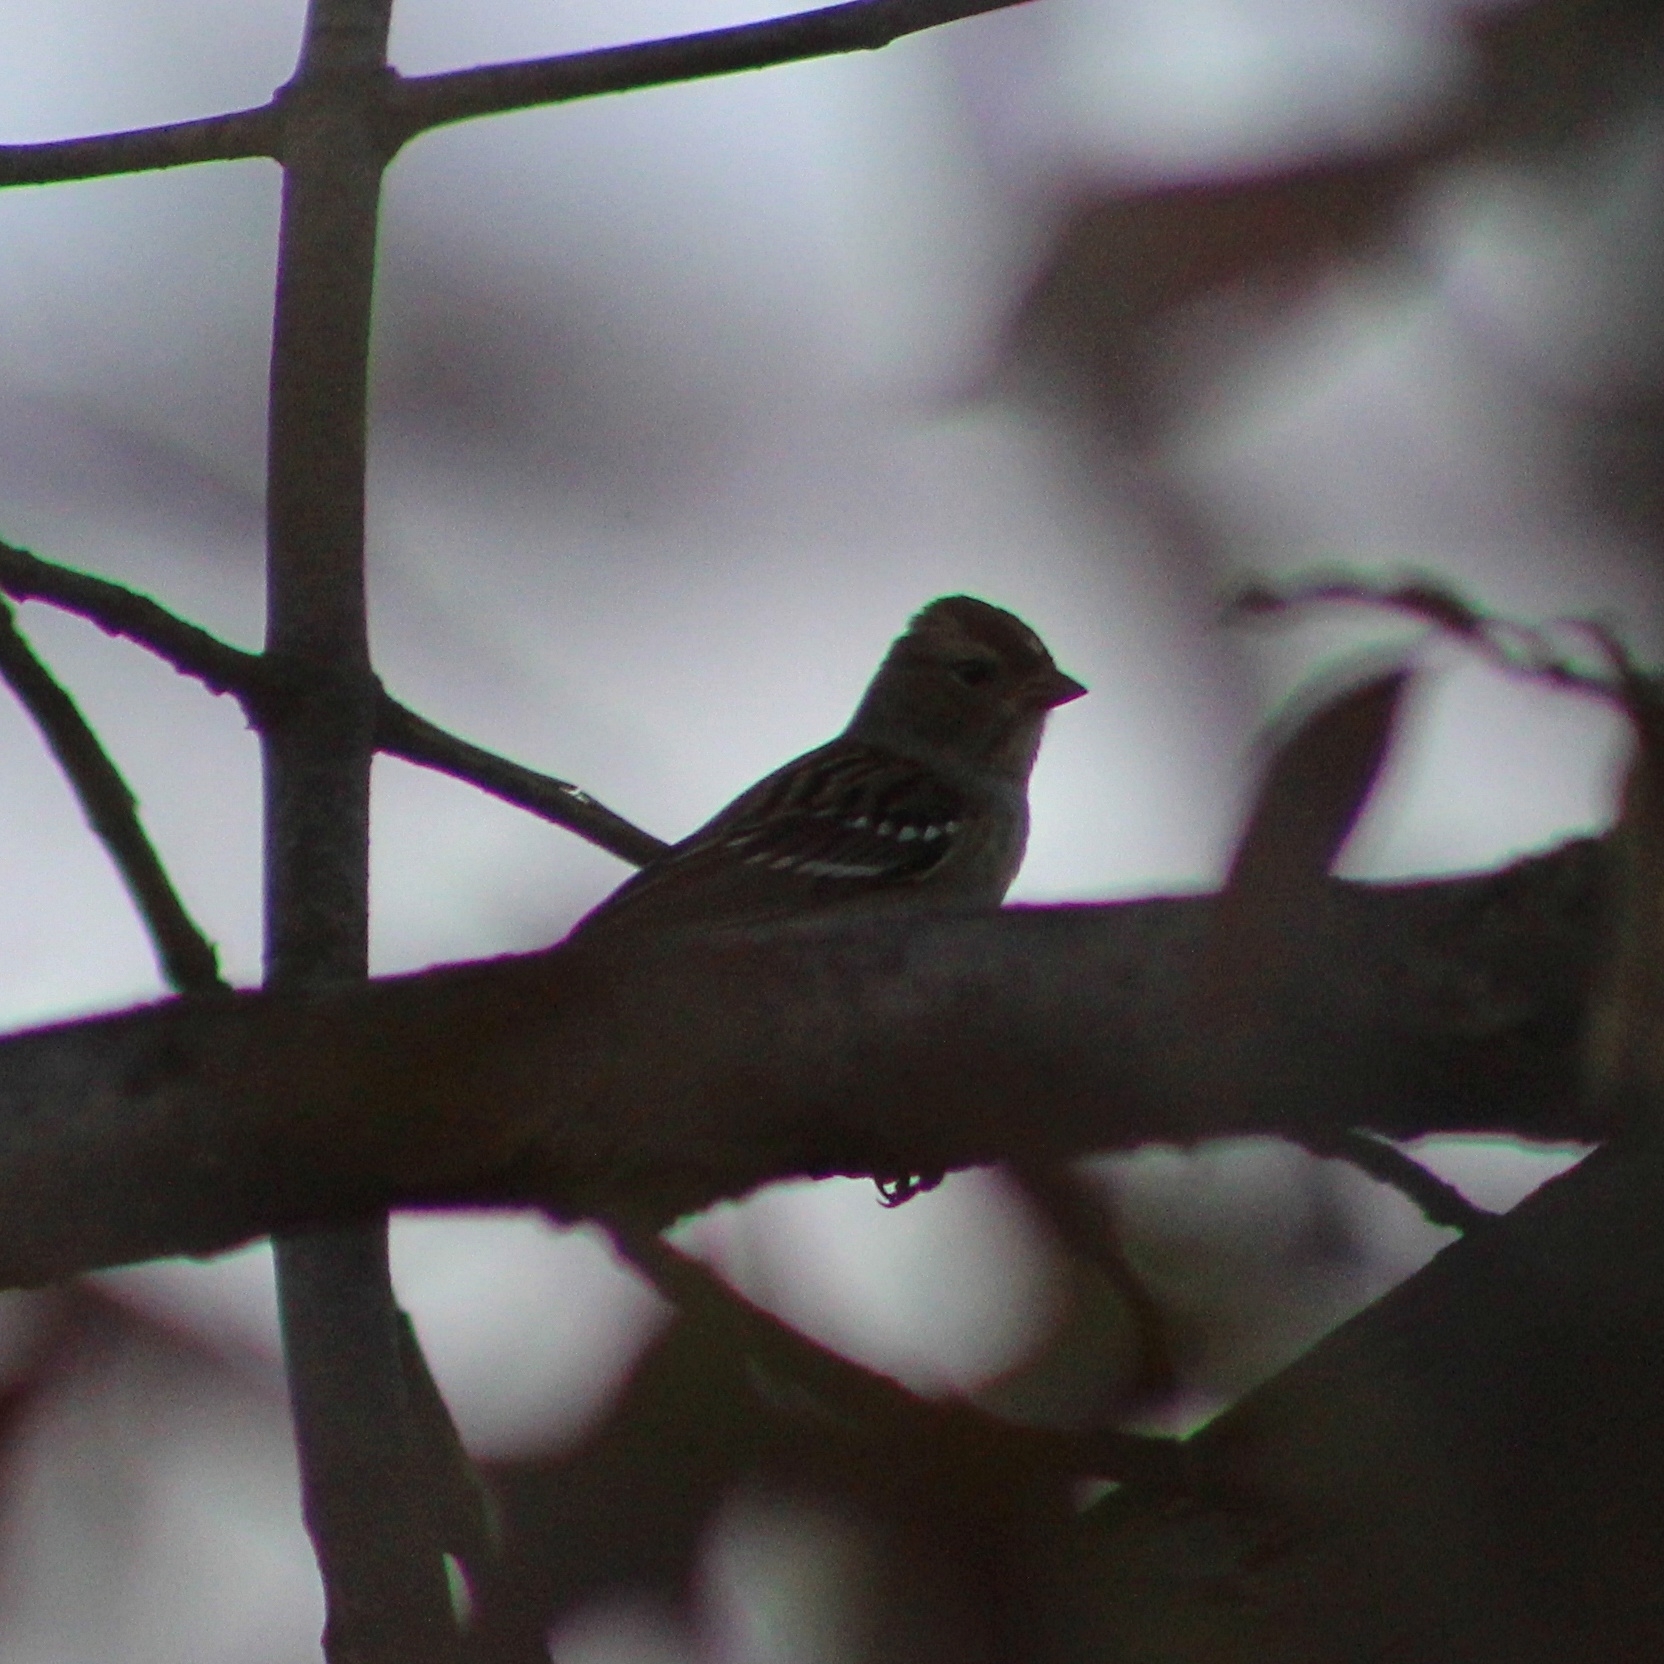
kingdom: Animalia
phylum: Chordata
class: Aves
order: Passeriformes
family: Passerellidae
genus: Zonotrichia
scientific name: Zonotrichia leucophrys
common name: White-crowned sparrow
